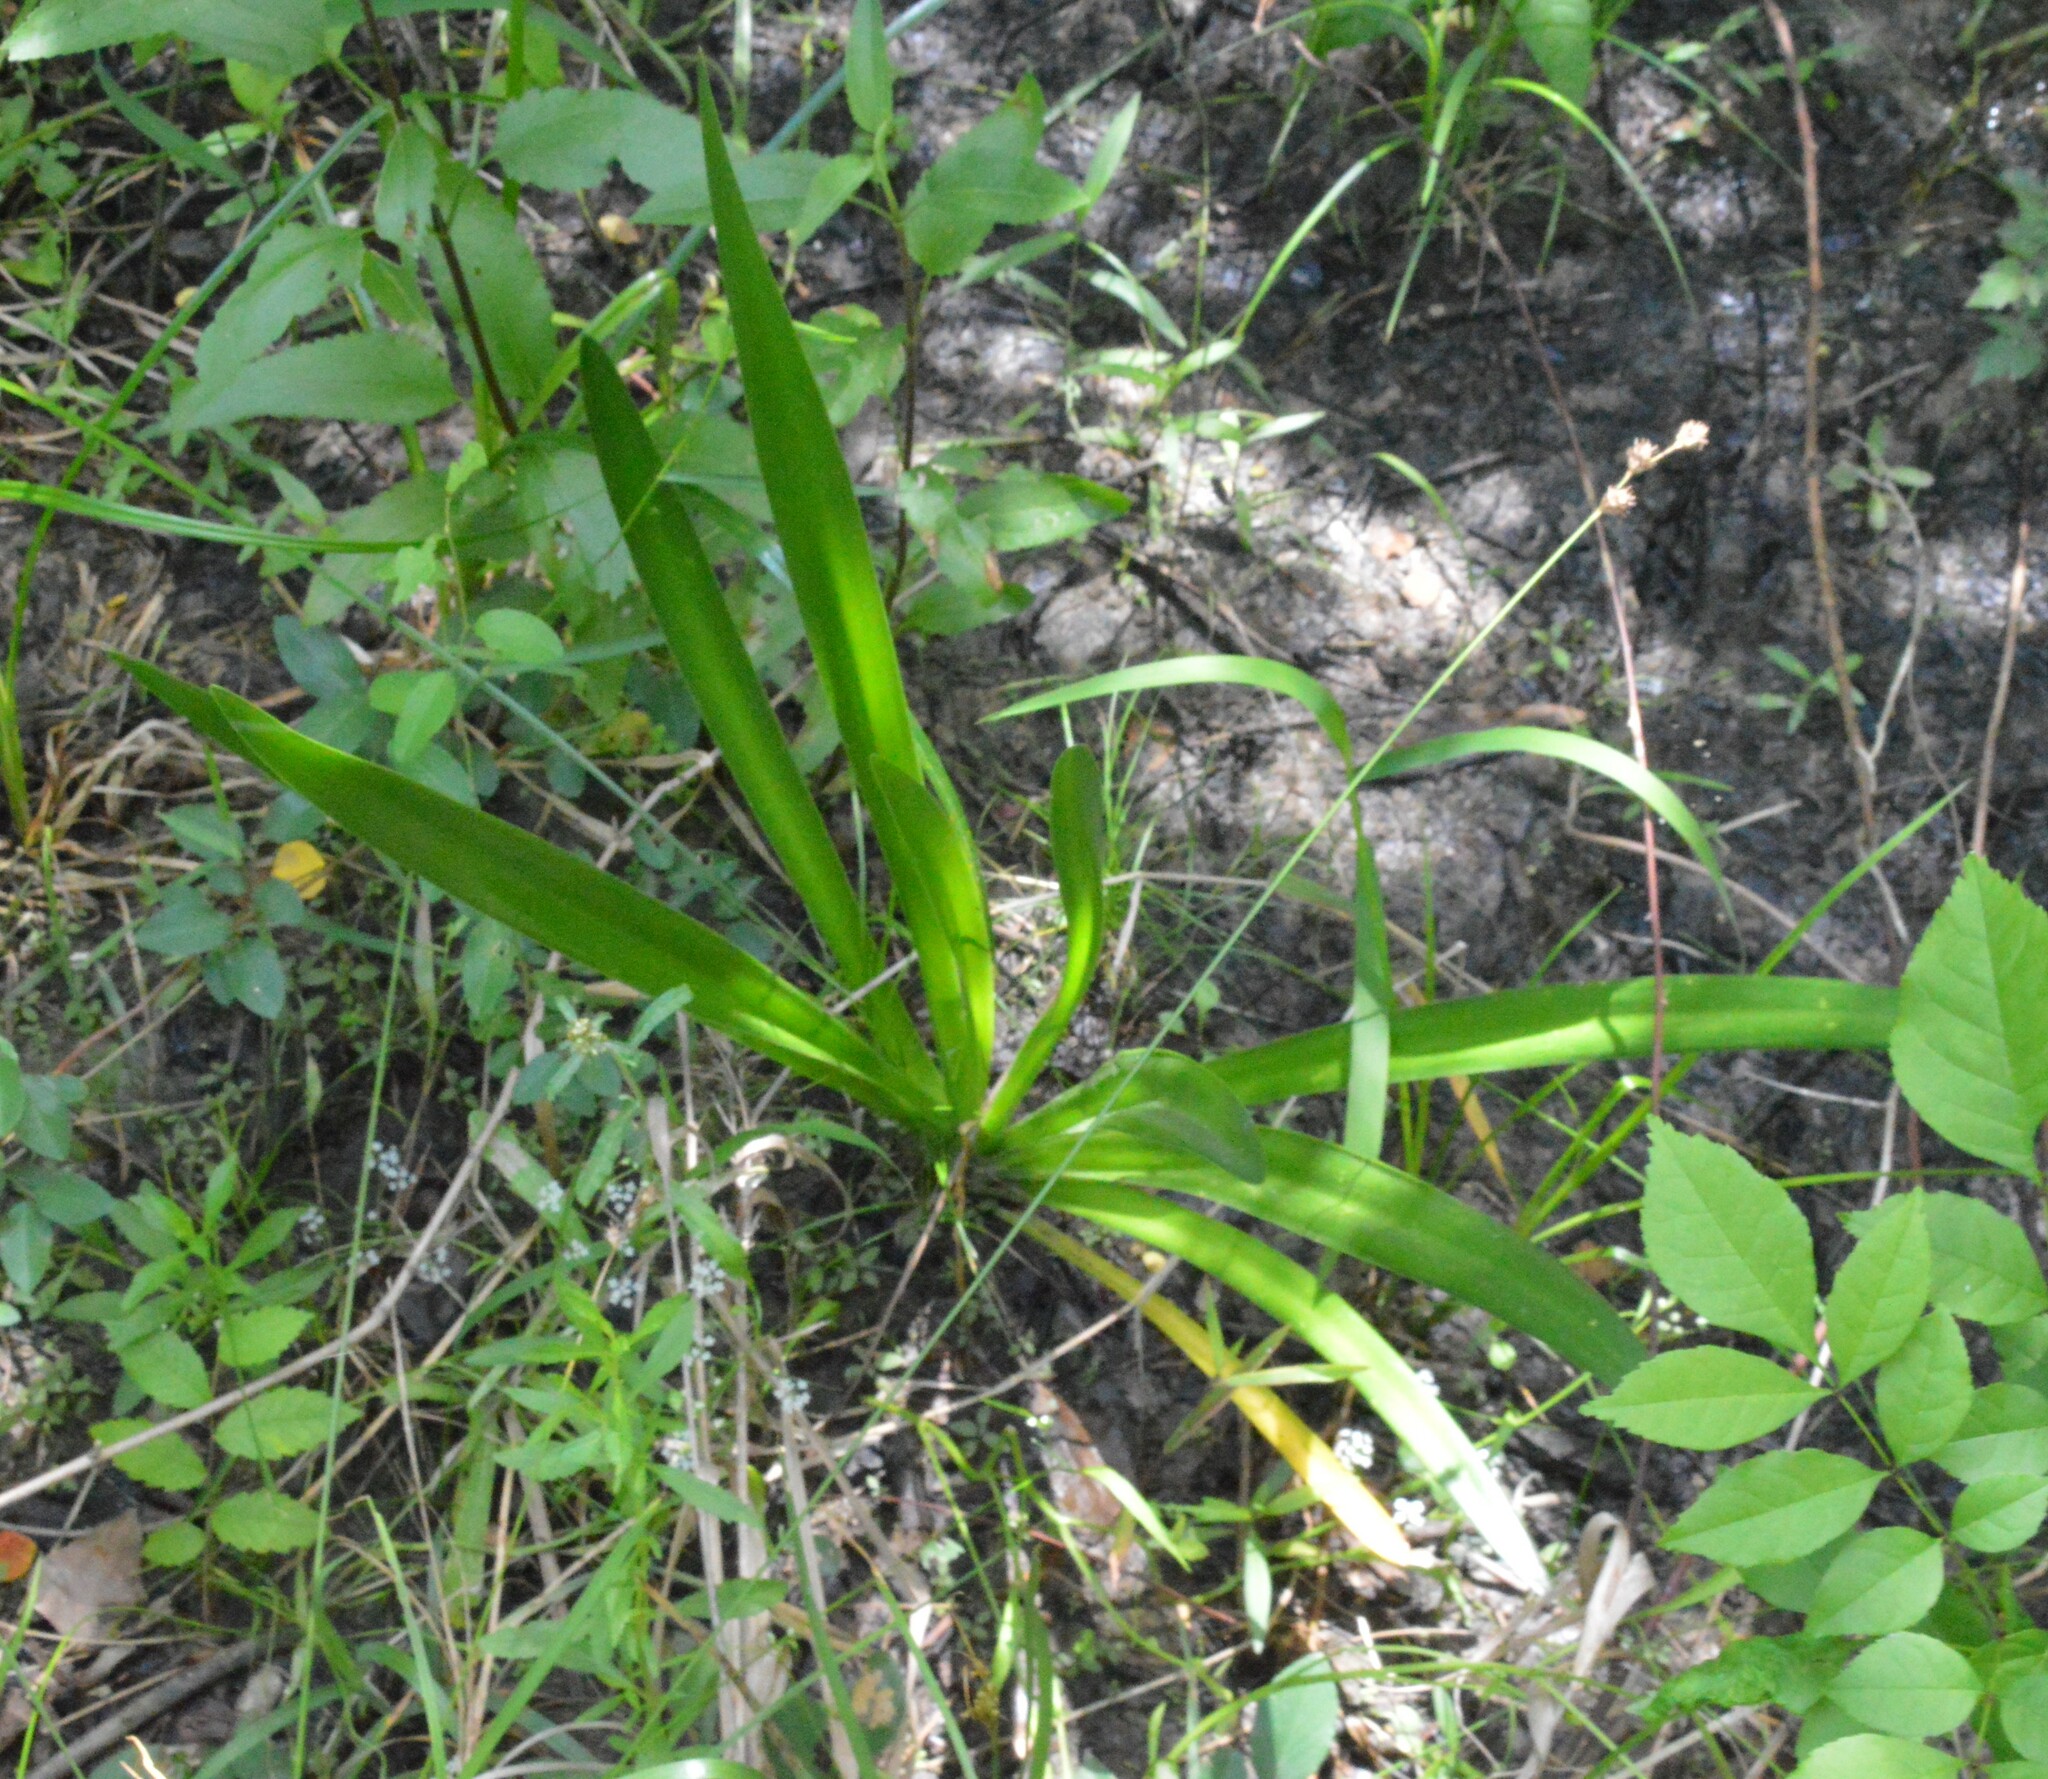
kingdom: Plantae
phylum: Tracheophyta
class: Liliopsida
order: Asparagales
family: Amaryllidaceae
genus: Hymenocallis
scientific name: Hymenocallis liriosme
